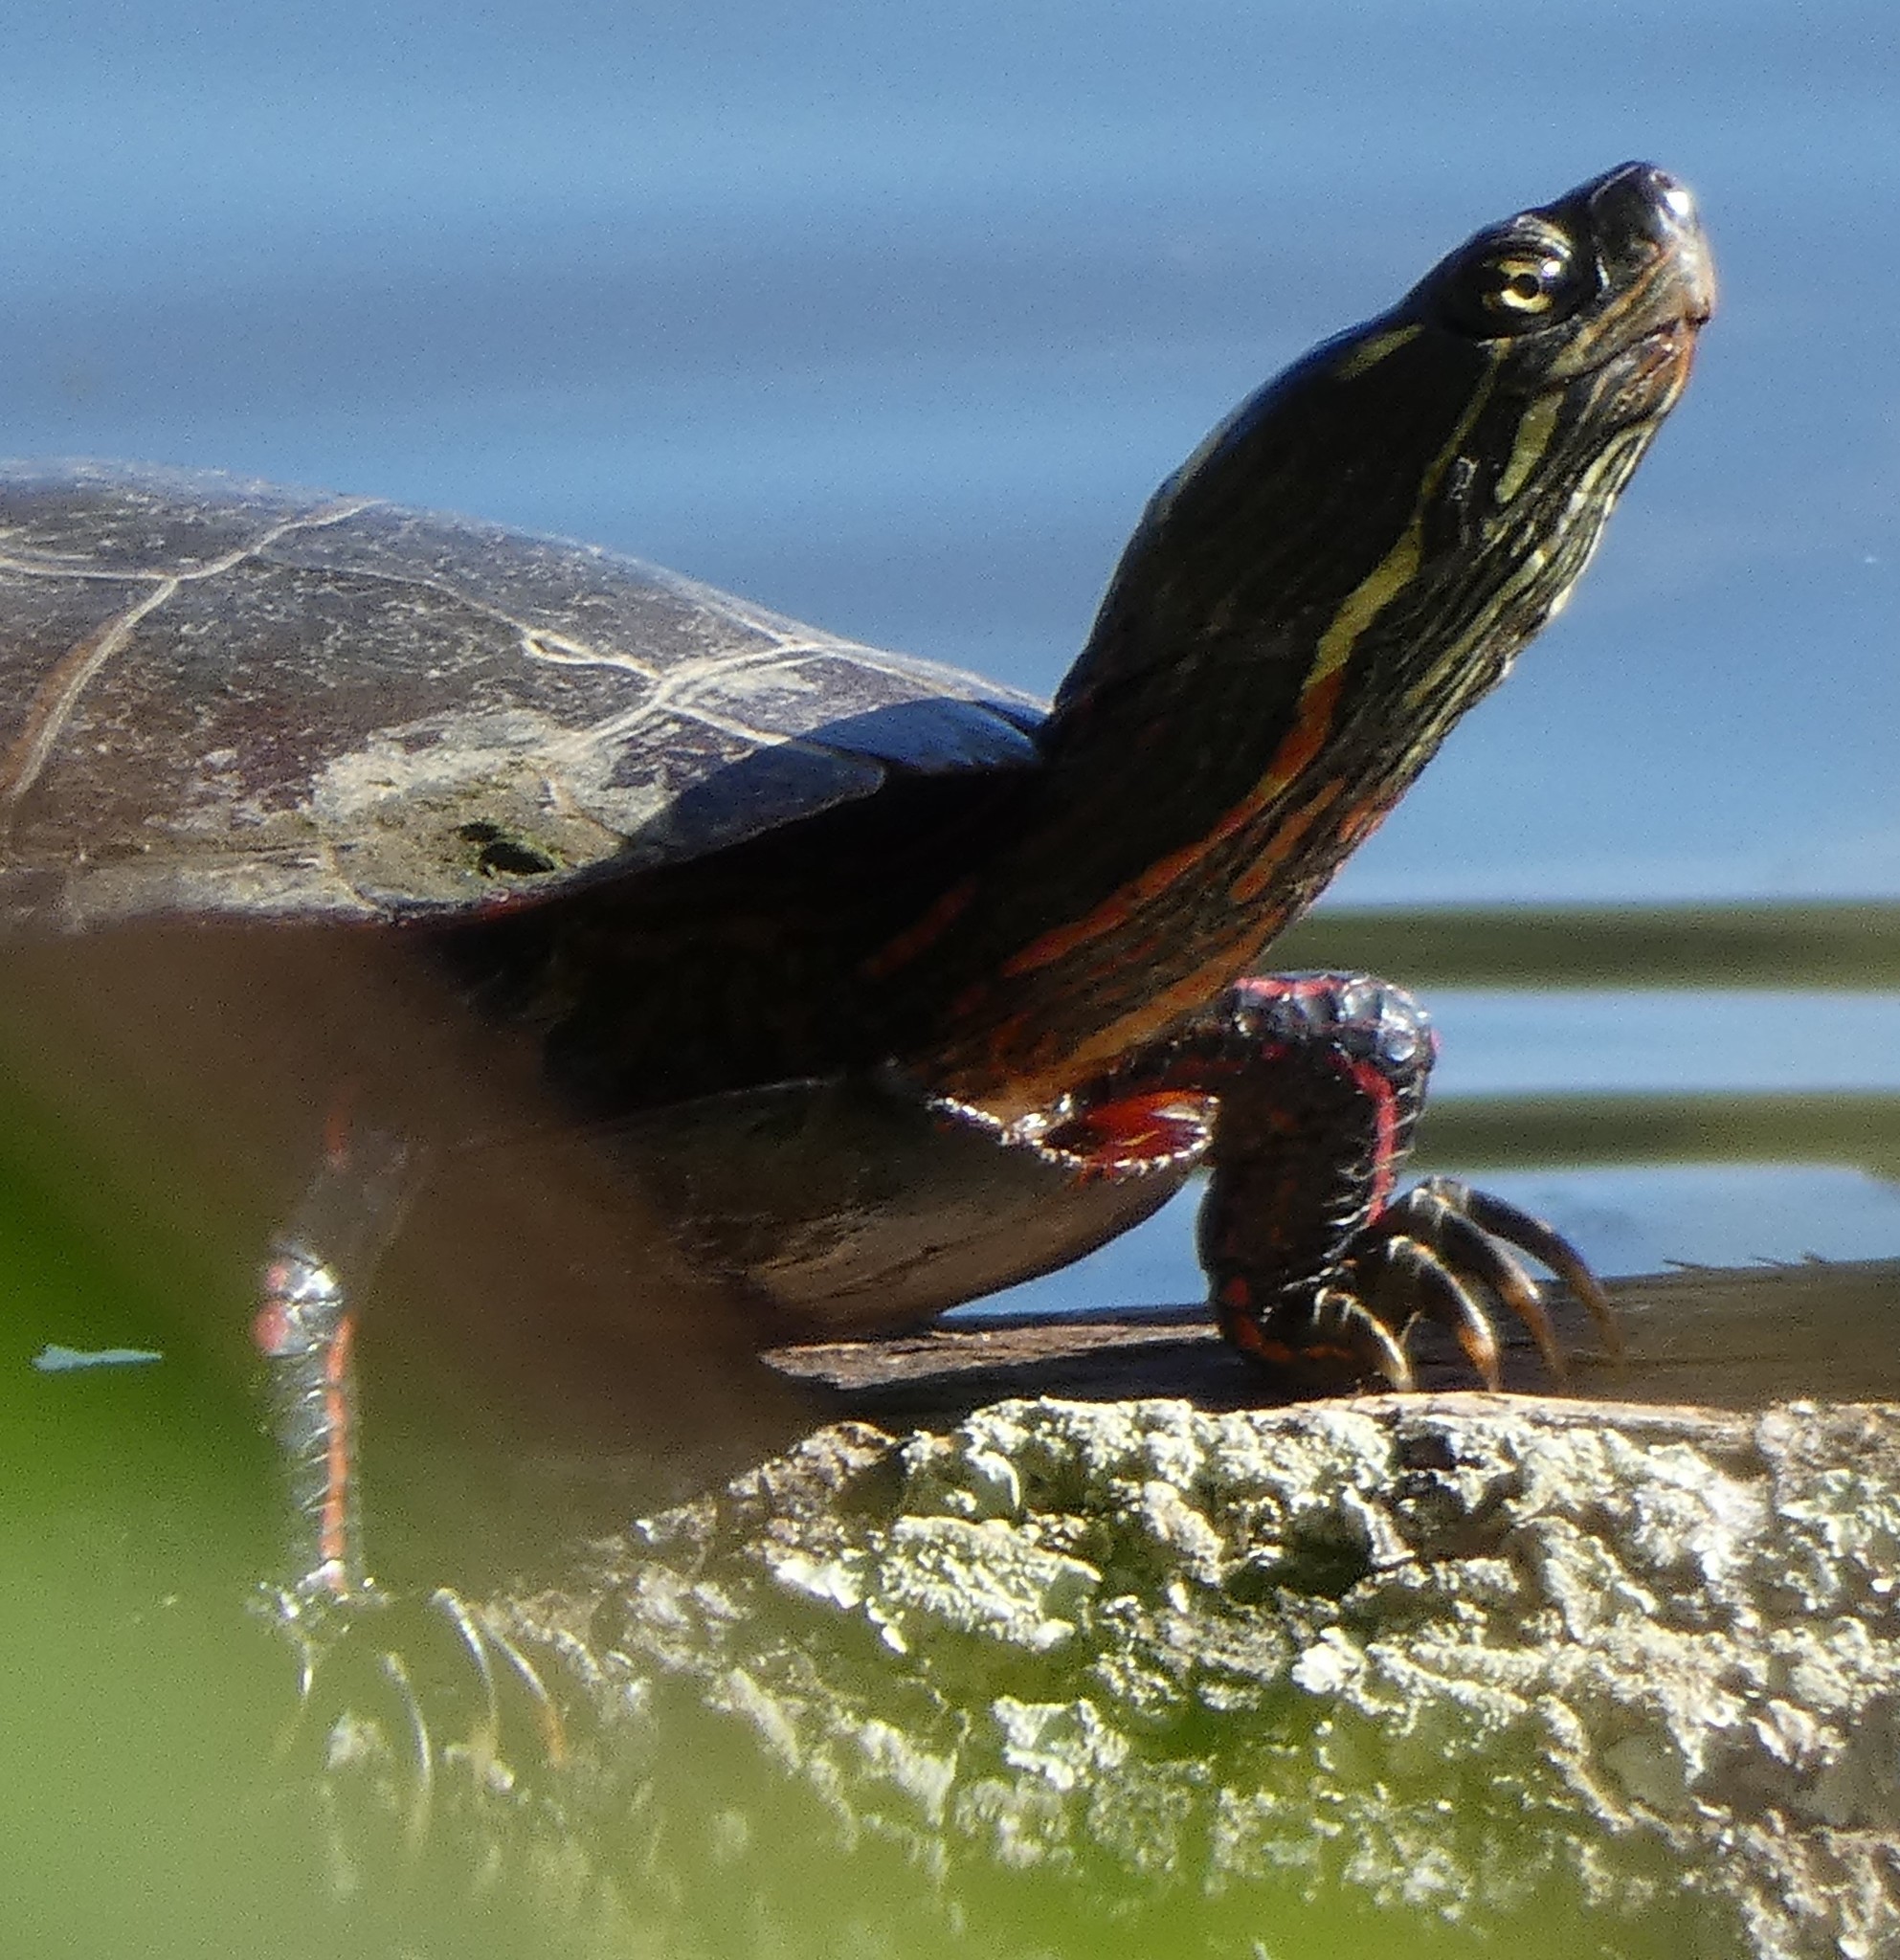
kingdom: Animalia
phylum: Chordata
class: Testudines
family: Emydidae
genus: Chrysemys
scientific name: Chrysemys picta
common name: Painted turtle
